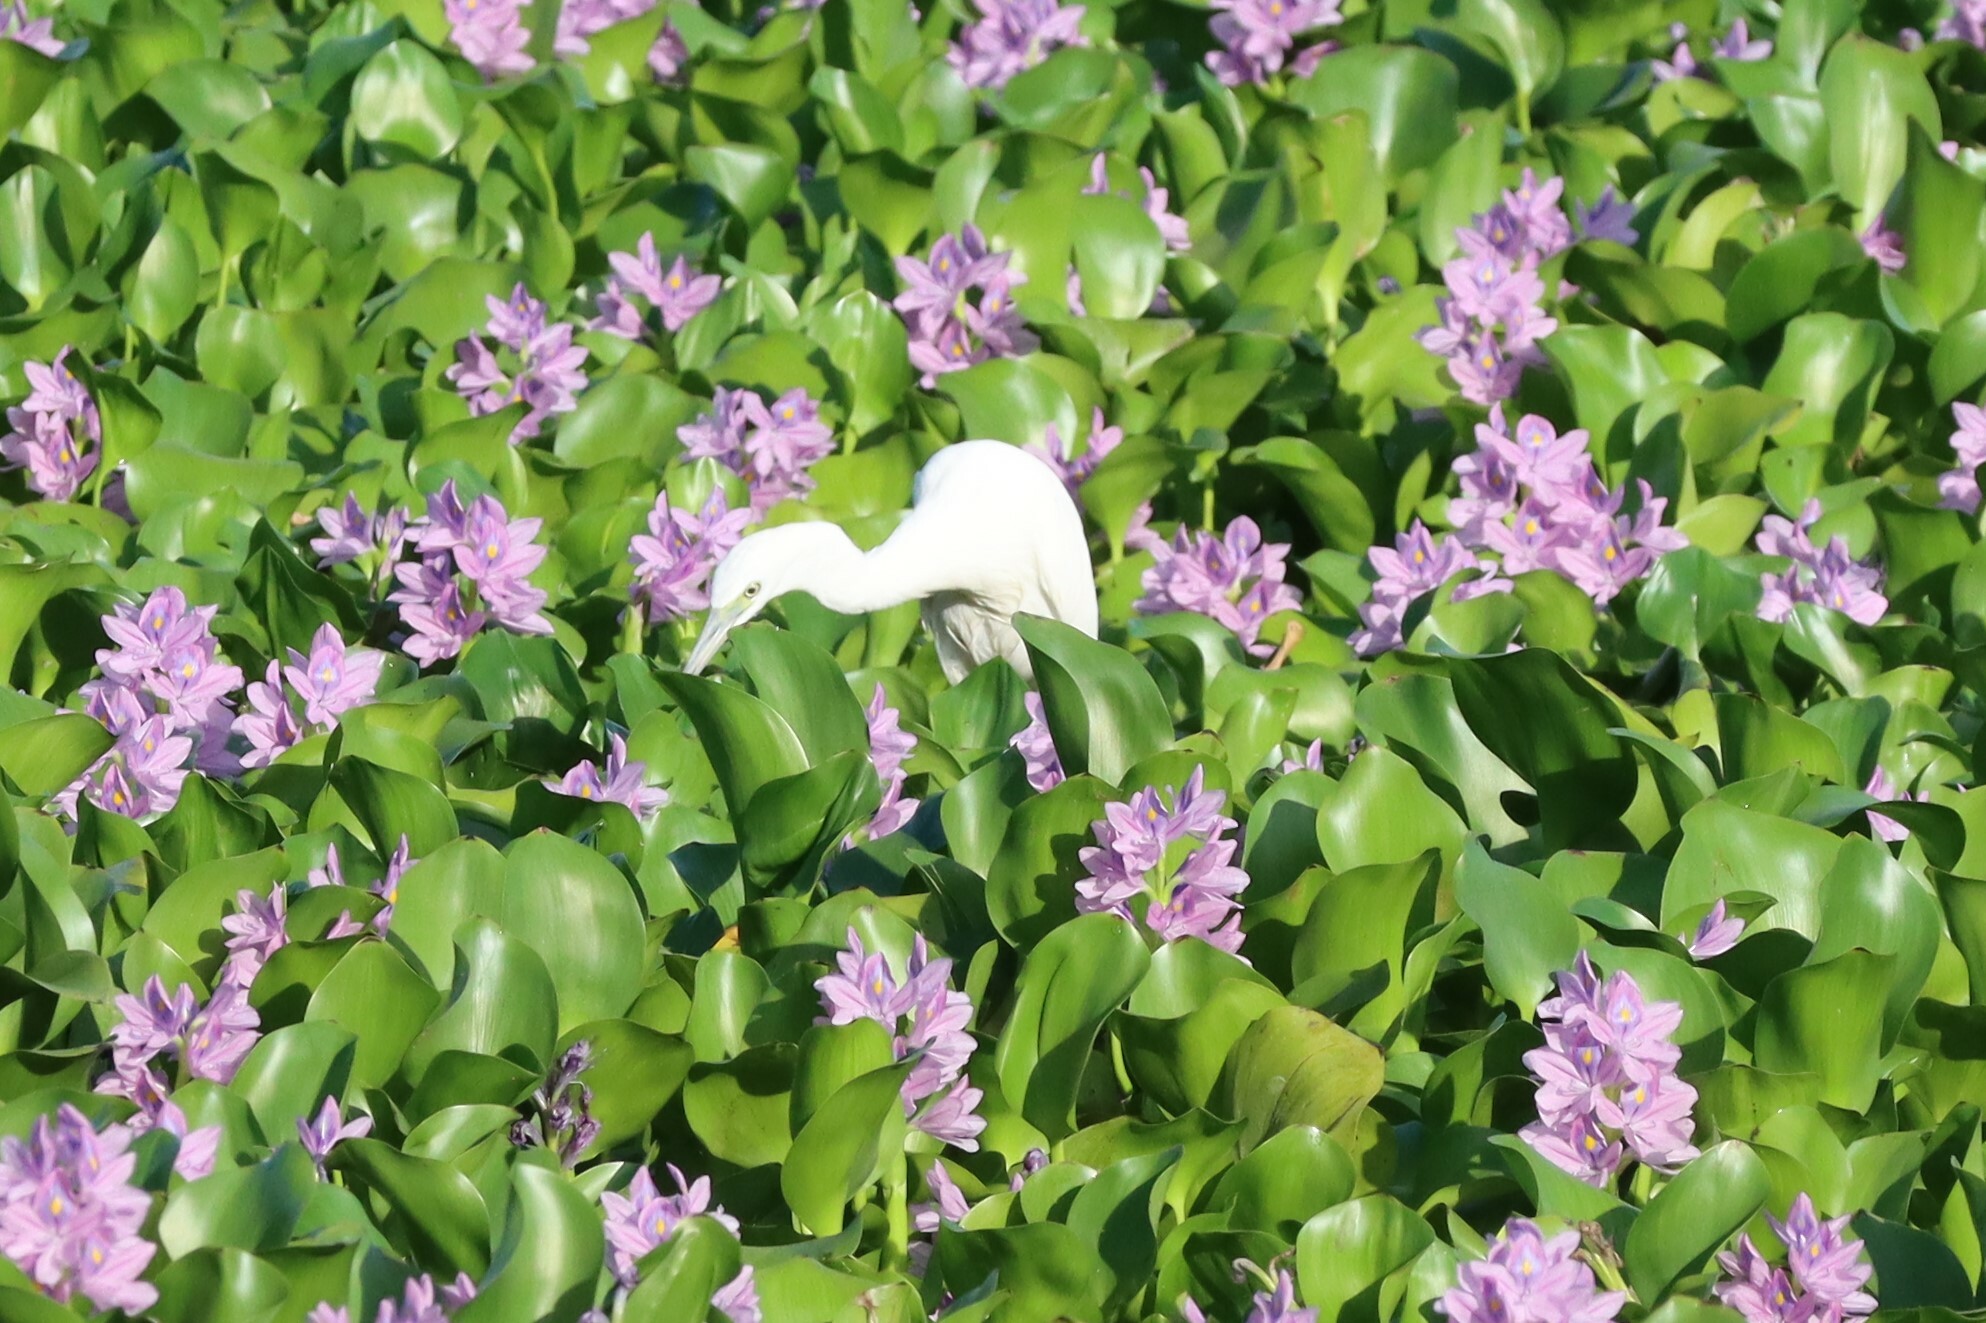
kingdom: Animalia
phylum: Chordata
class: Aves
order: Pelecaniformes
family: Ardeidae
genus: Egretta
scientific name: Egretta caerulea
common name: Little blue heron
